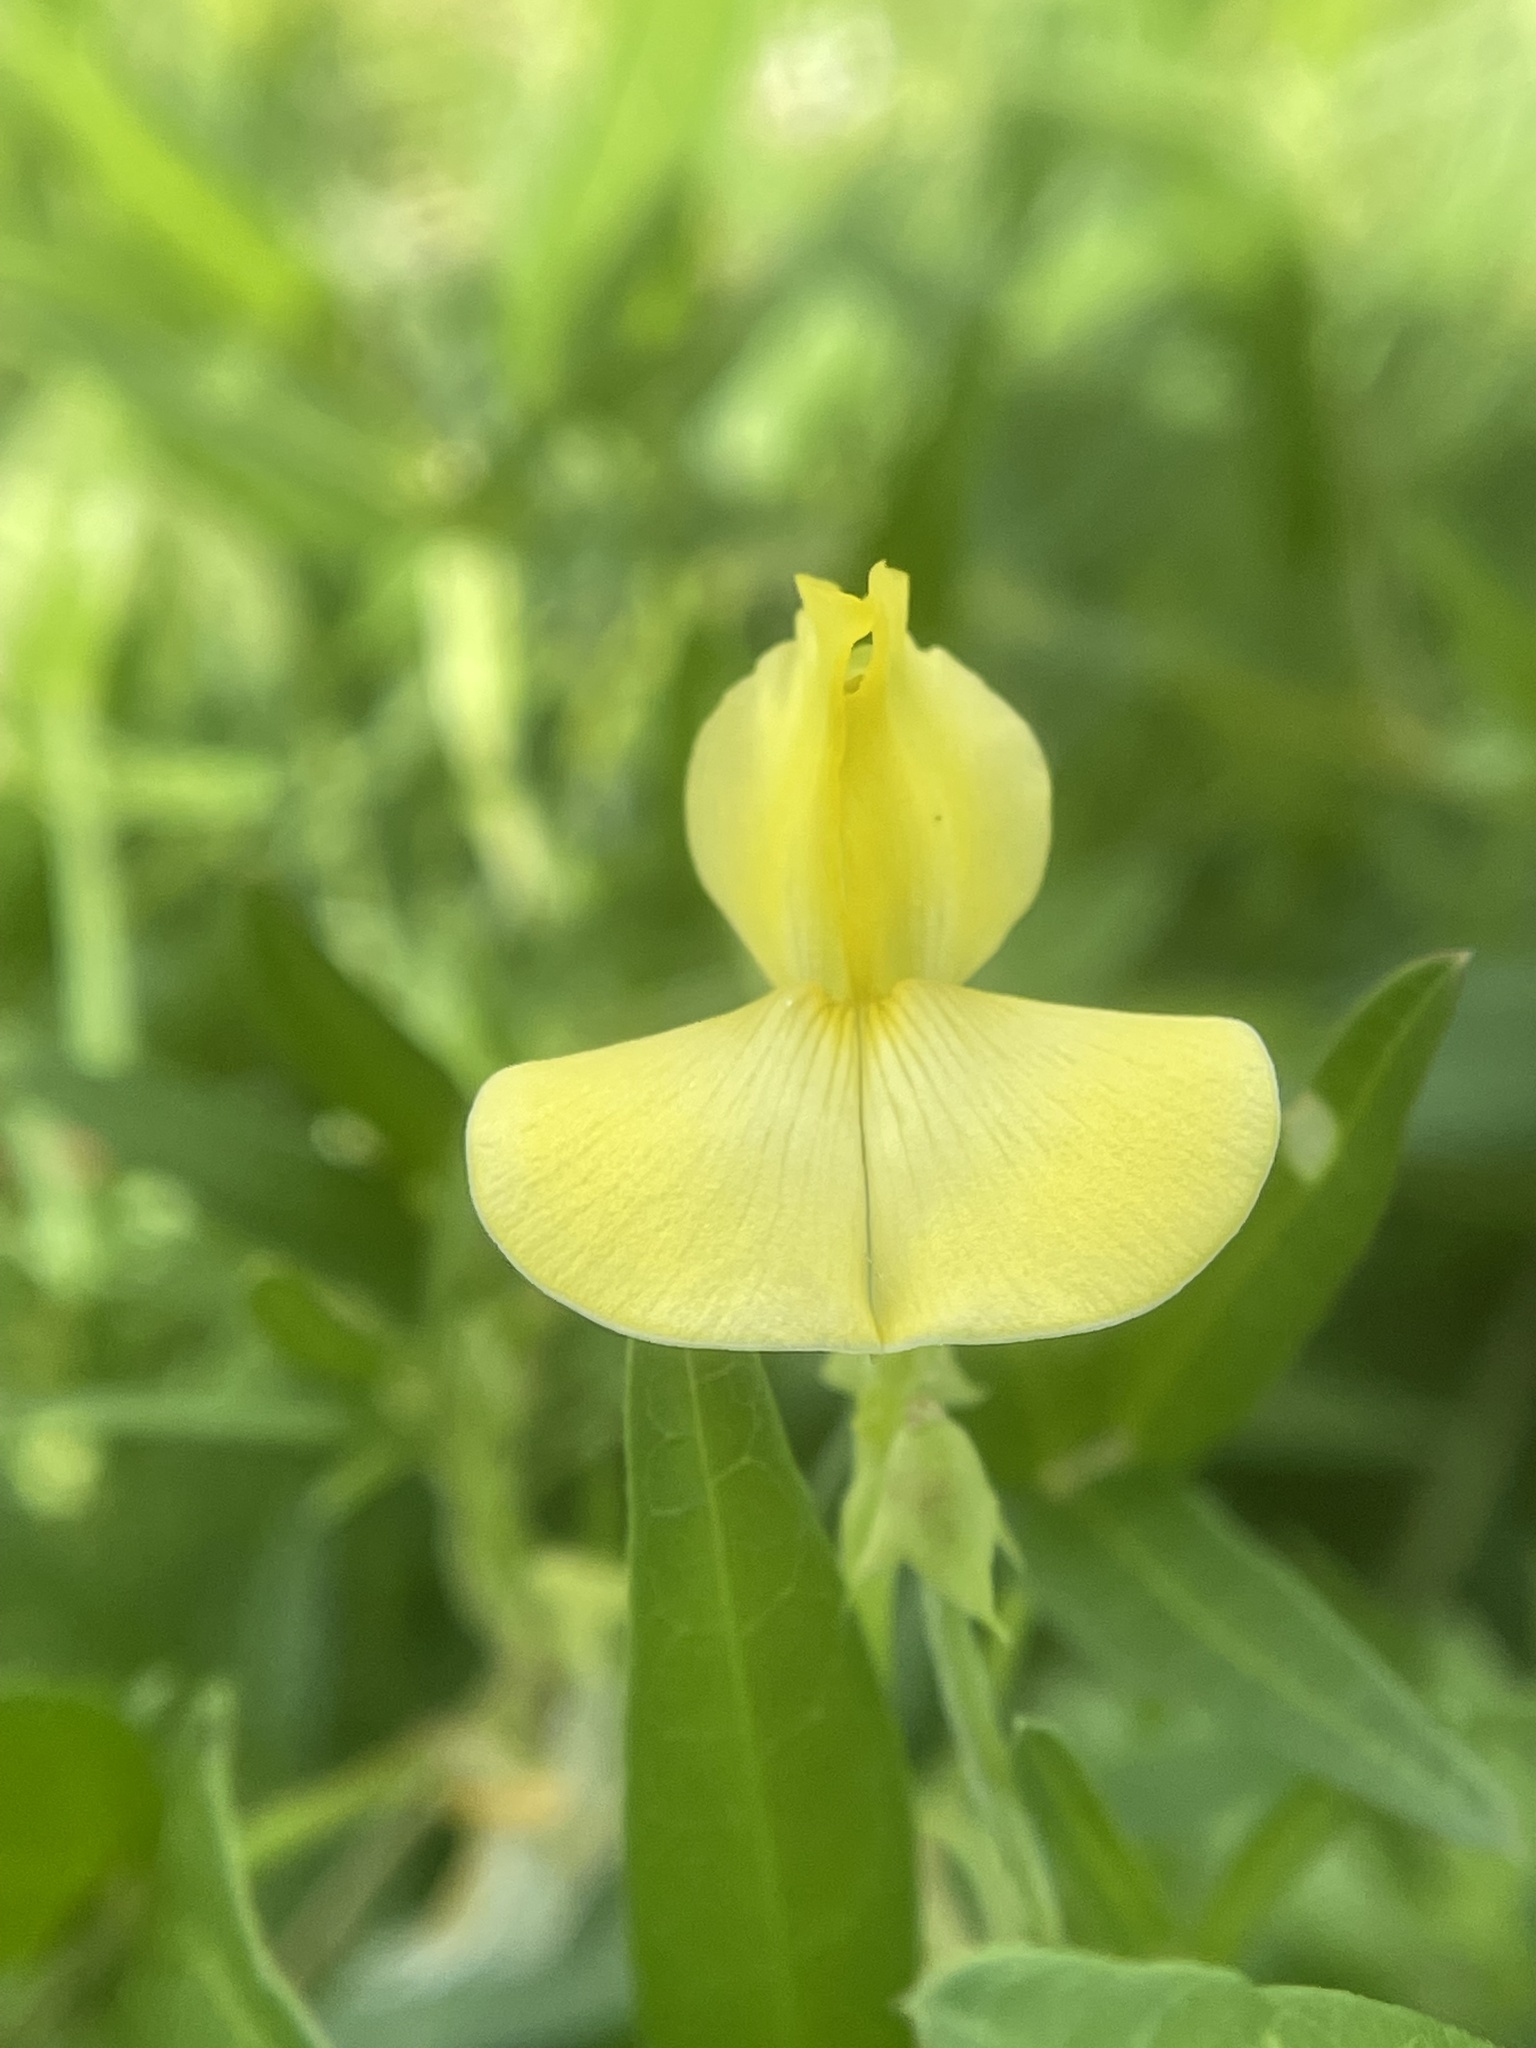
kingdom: Plantae
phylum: Tracheophyta
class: Magnoliopsida
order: Fabales
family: Fabaceae
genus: Vigna
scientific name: Vigna luteola
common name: Hairypod cowpea
